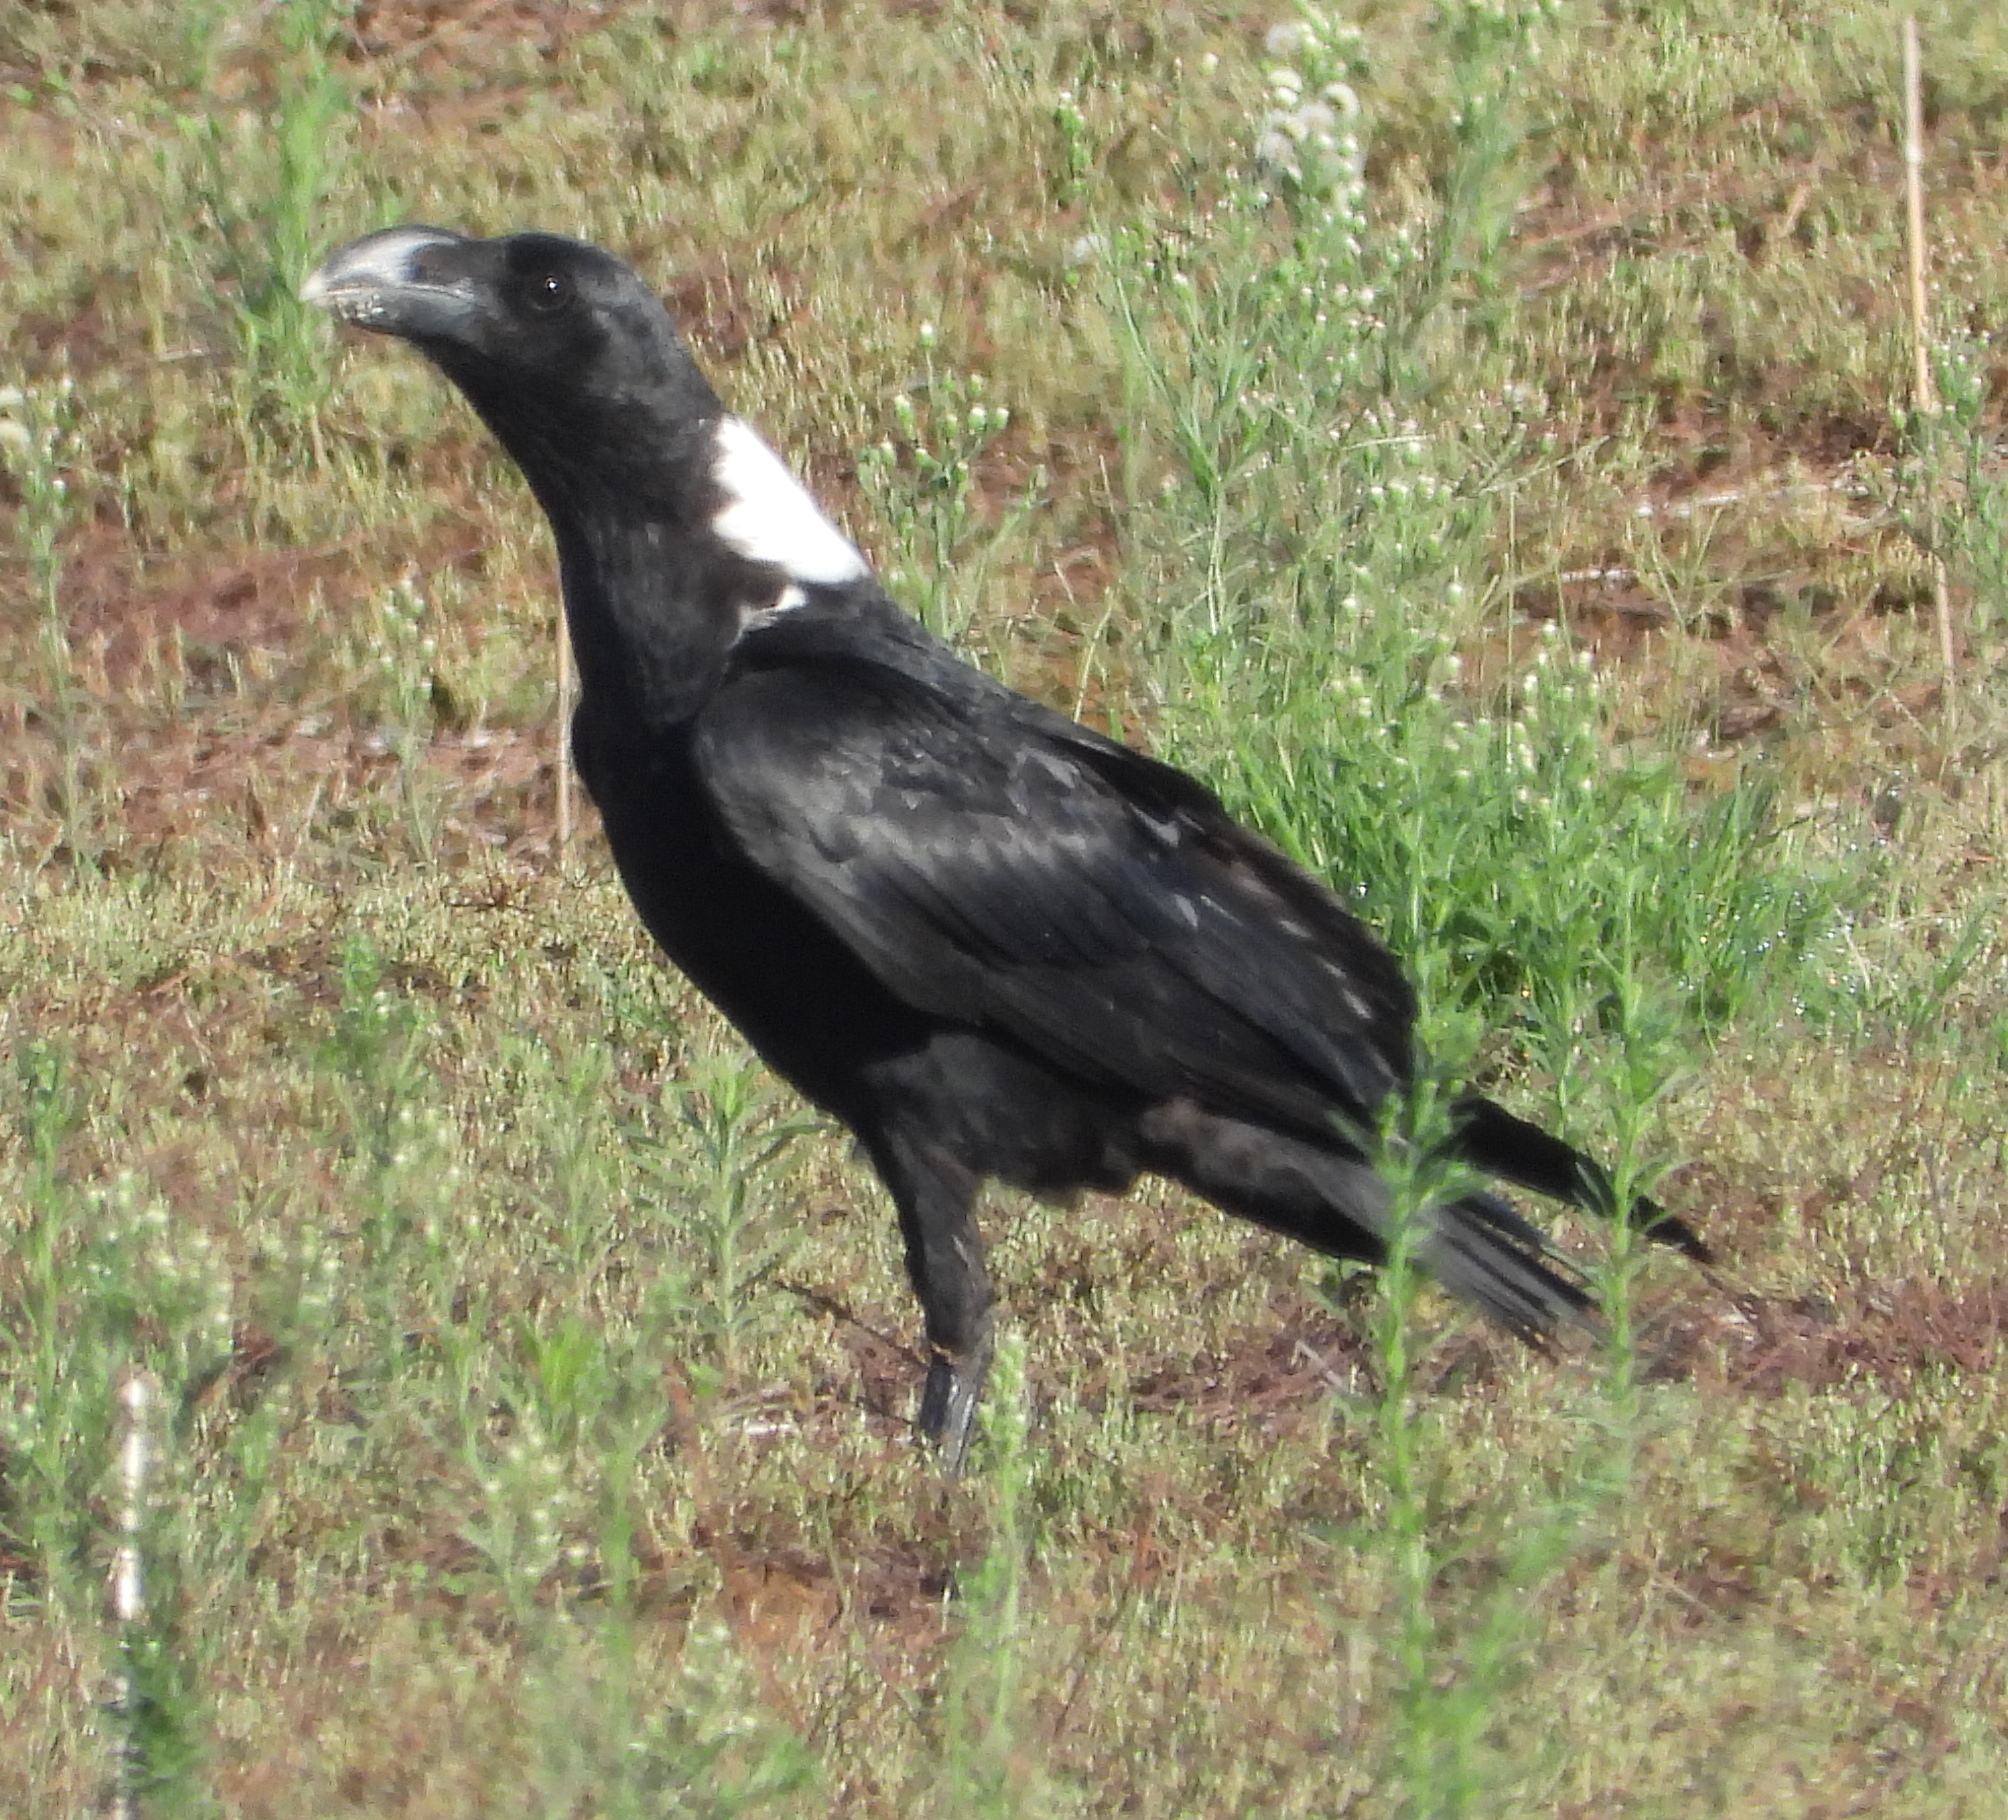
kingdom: Animalia
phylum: Chordata
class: Aves
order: Passeriformes
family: Corvidae
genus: Corvus
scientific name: Corvus albicollis
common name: White-necked raven
